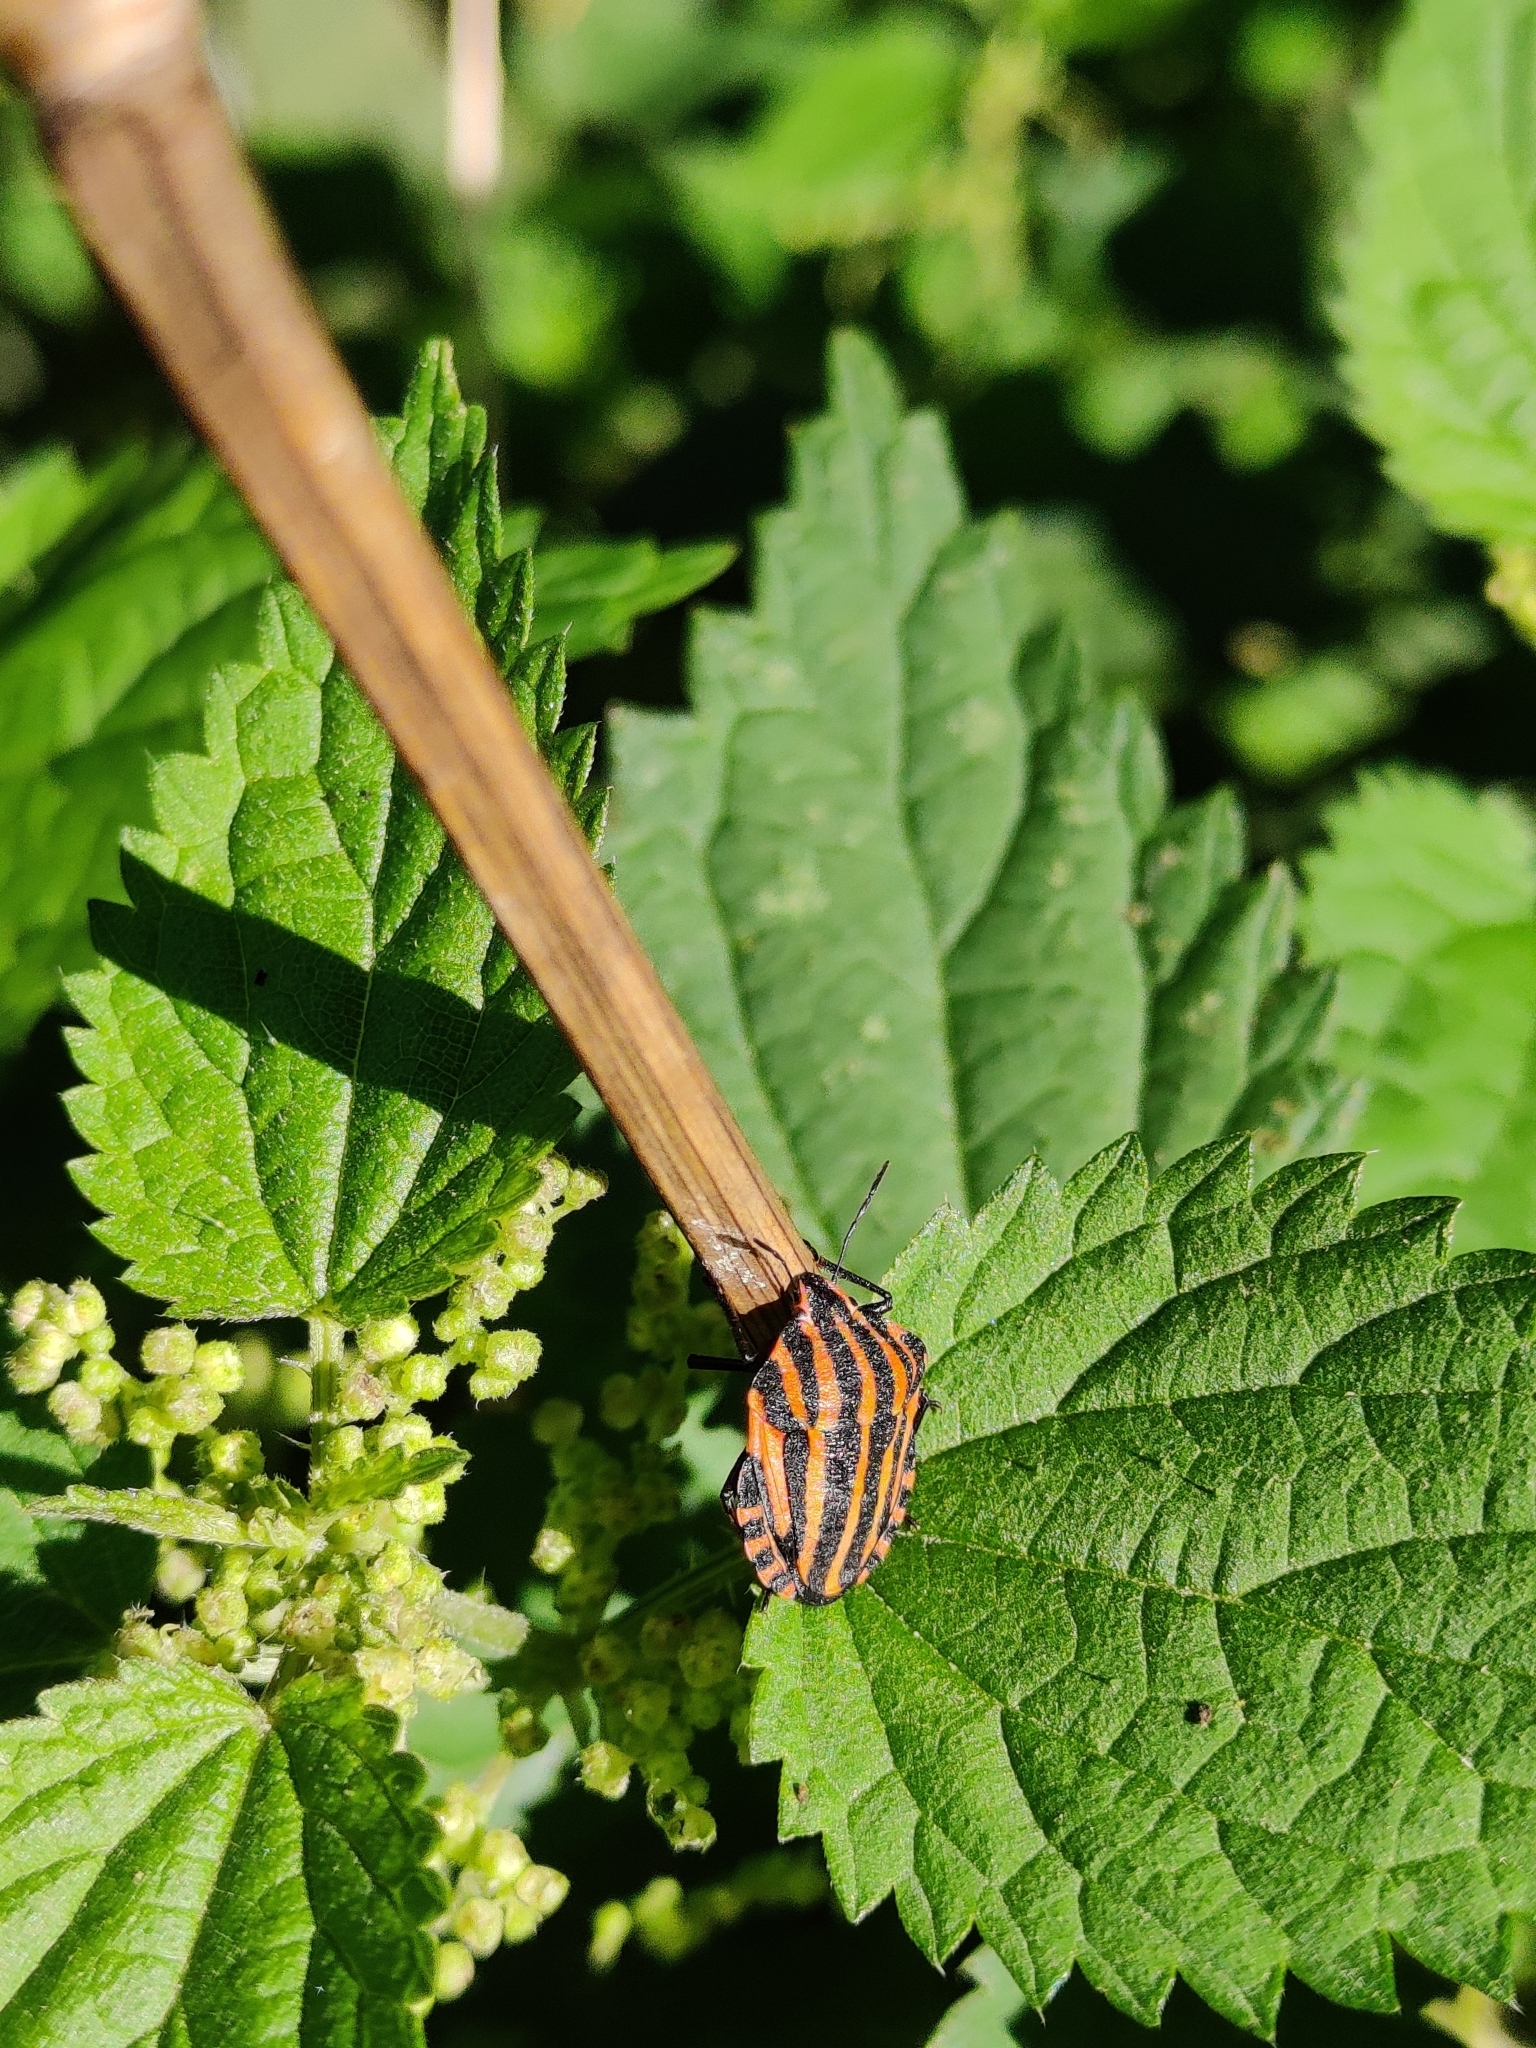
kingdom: Animalia
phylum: Arthropoda
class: Insecta
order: Hemiptera
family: Pentatomidae
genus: Graphosoma
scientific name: Graphosoma italicum
